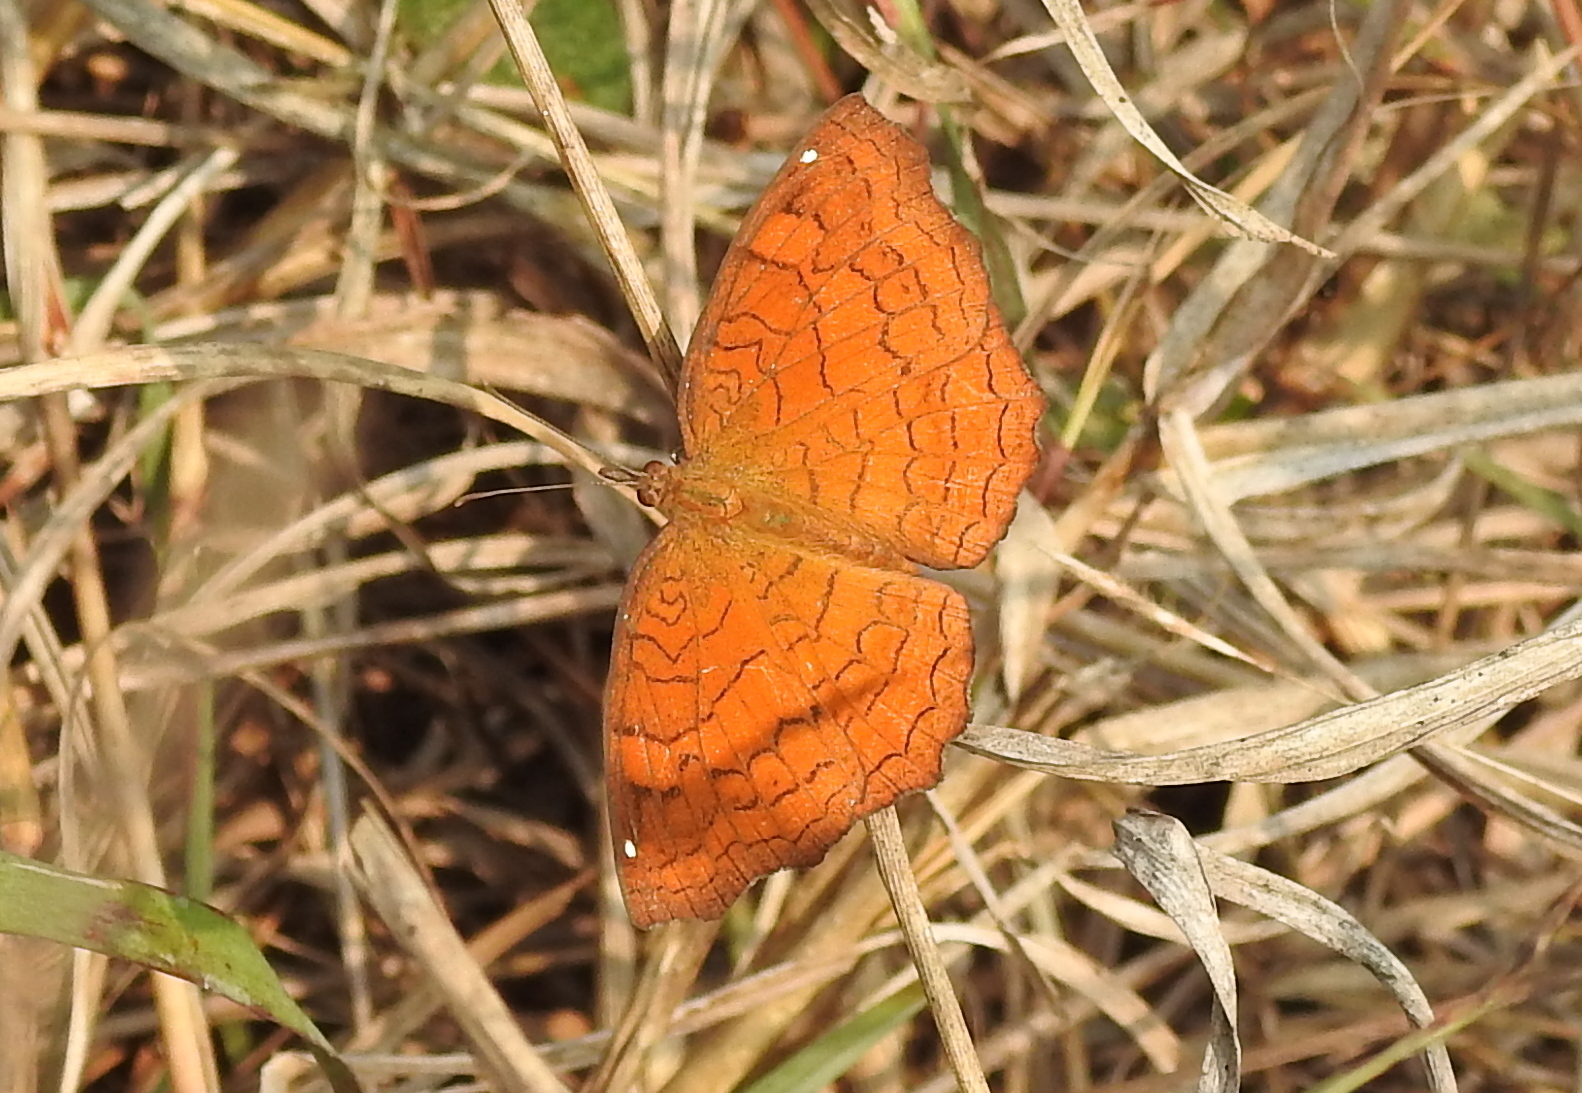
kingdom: Animalia
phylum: Arthropoda
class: Insecta
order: Lepidoptera
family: Nymphalidae
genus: Ariadne
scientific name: Ariadne ariadne
